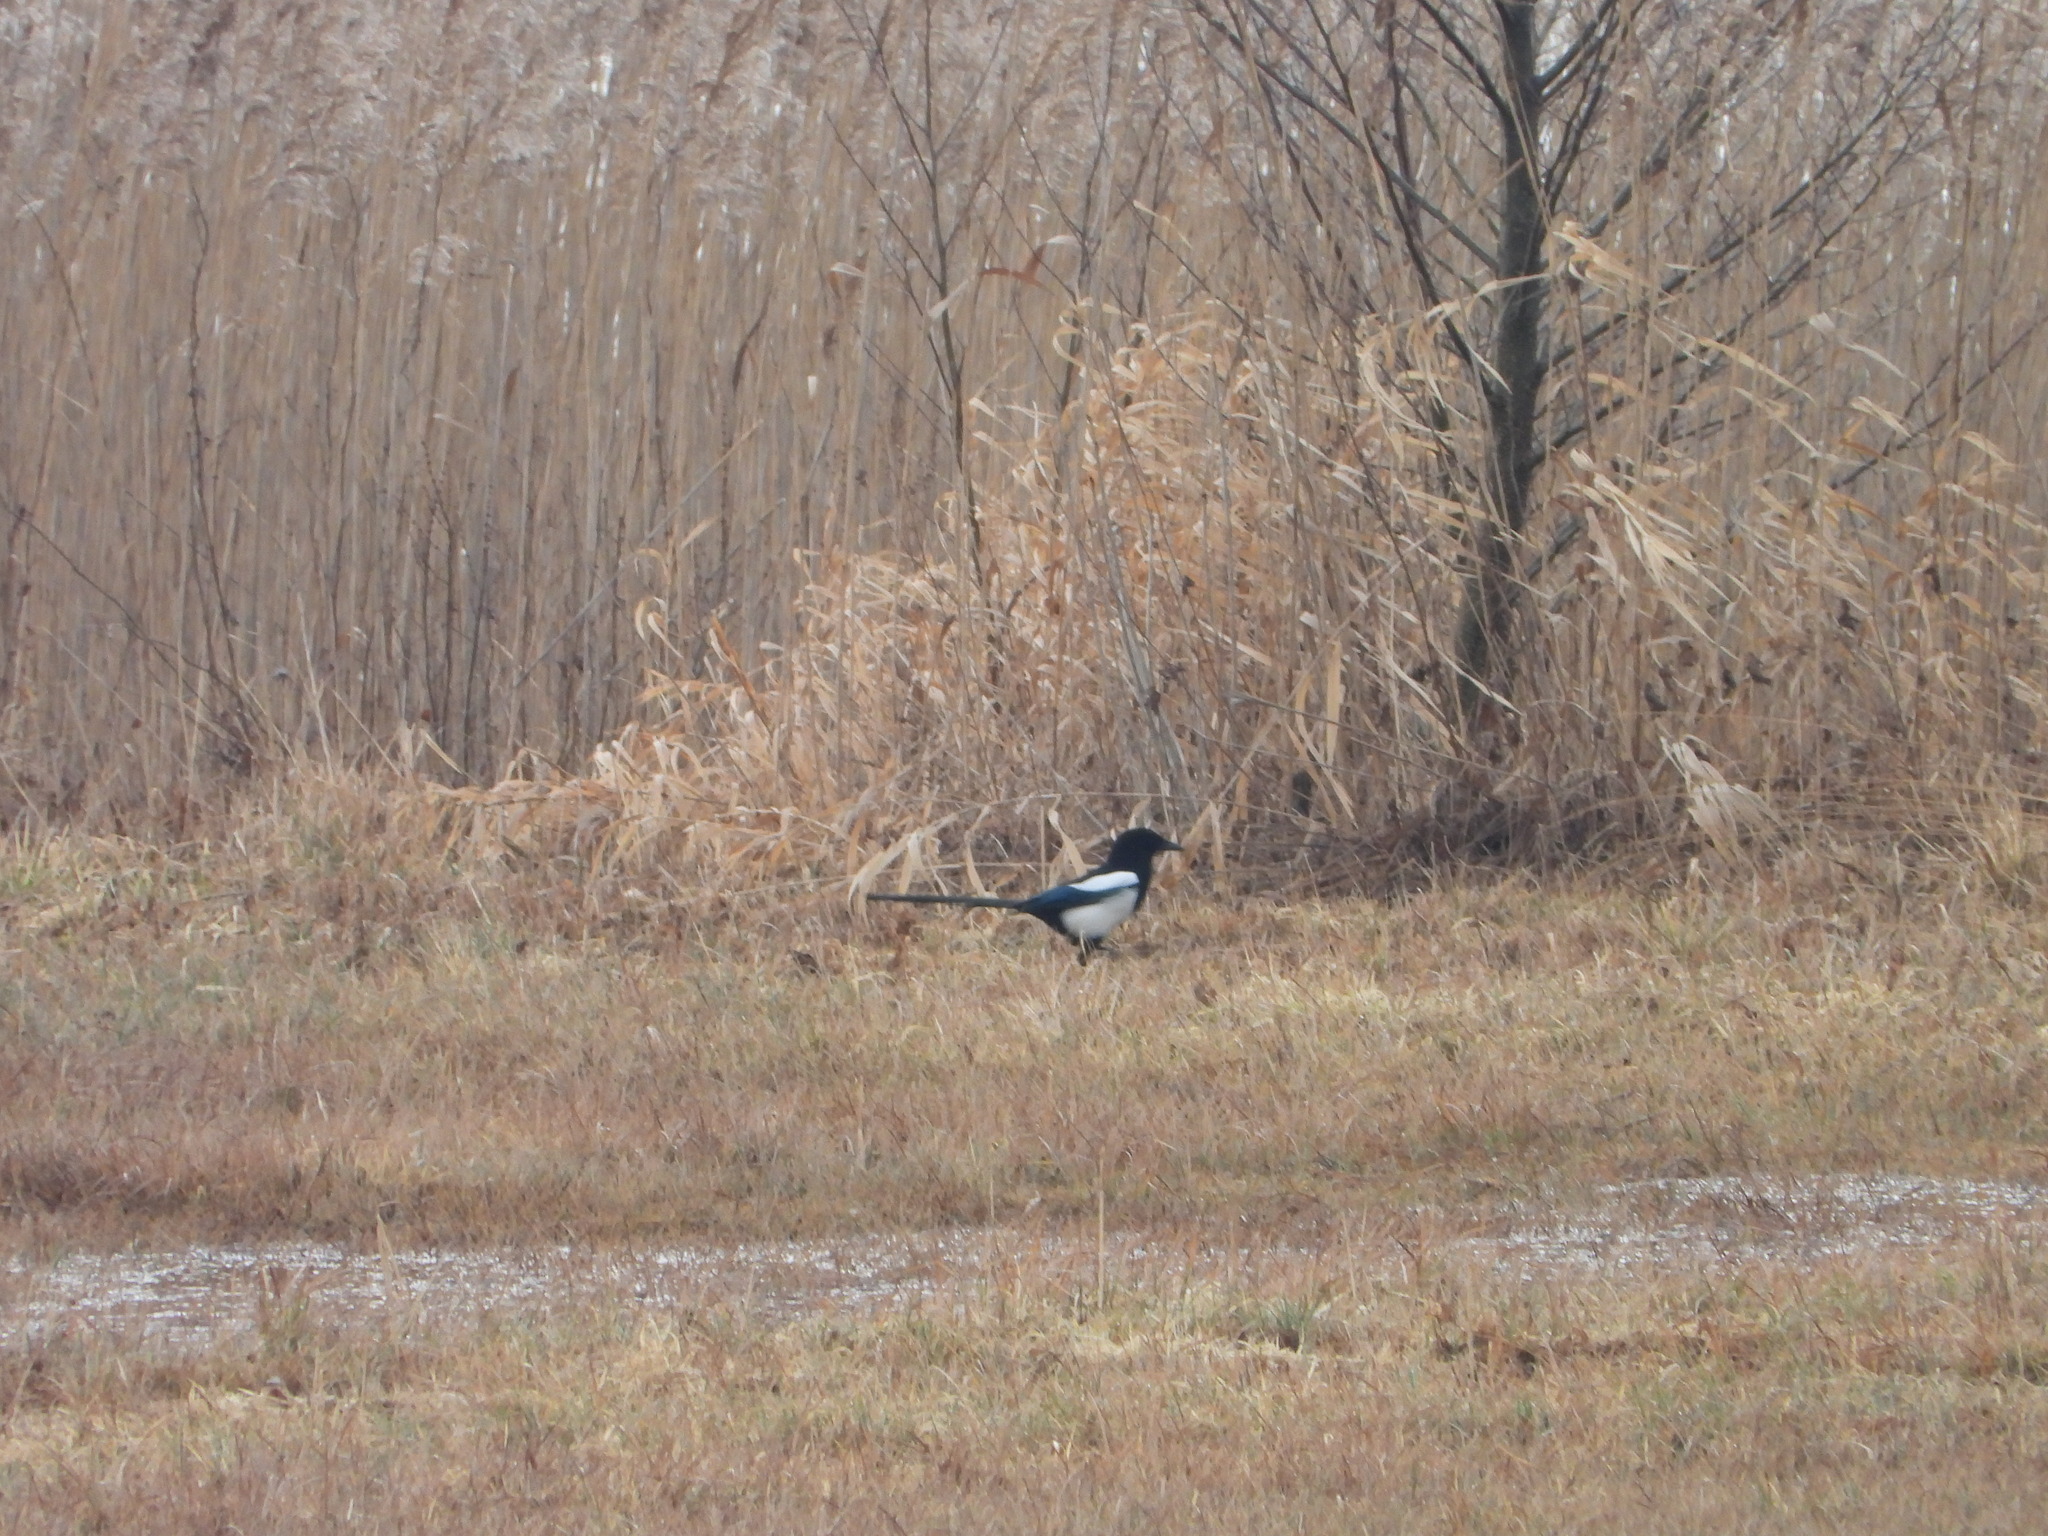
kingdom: Animalia
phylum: Chordata
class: Aves
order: Passeriformes
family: Corvidae
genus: Pica
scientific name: Pica pica
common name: Eurasian magpie
